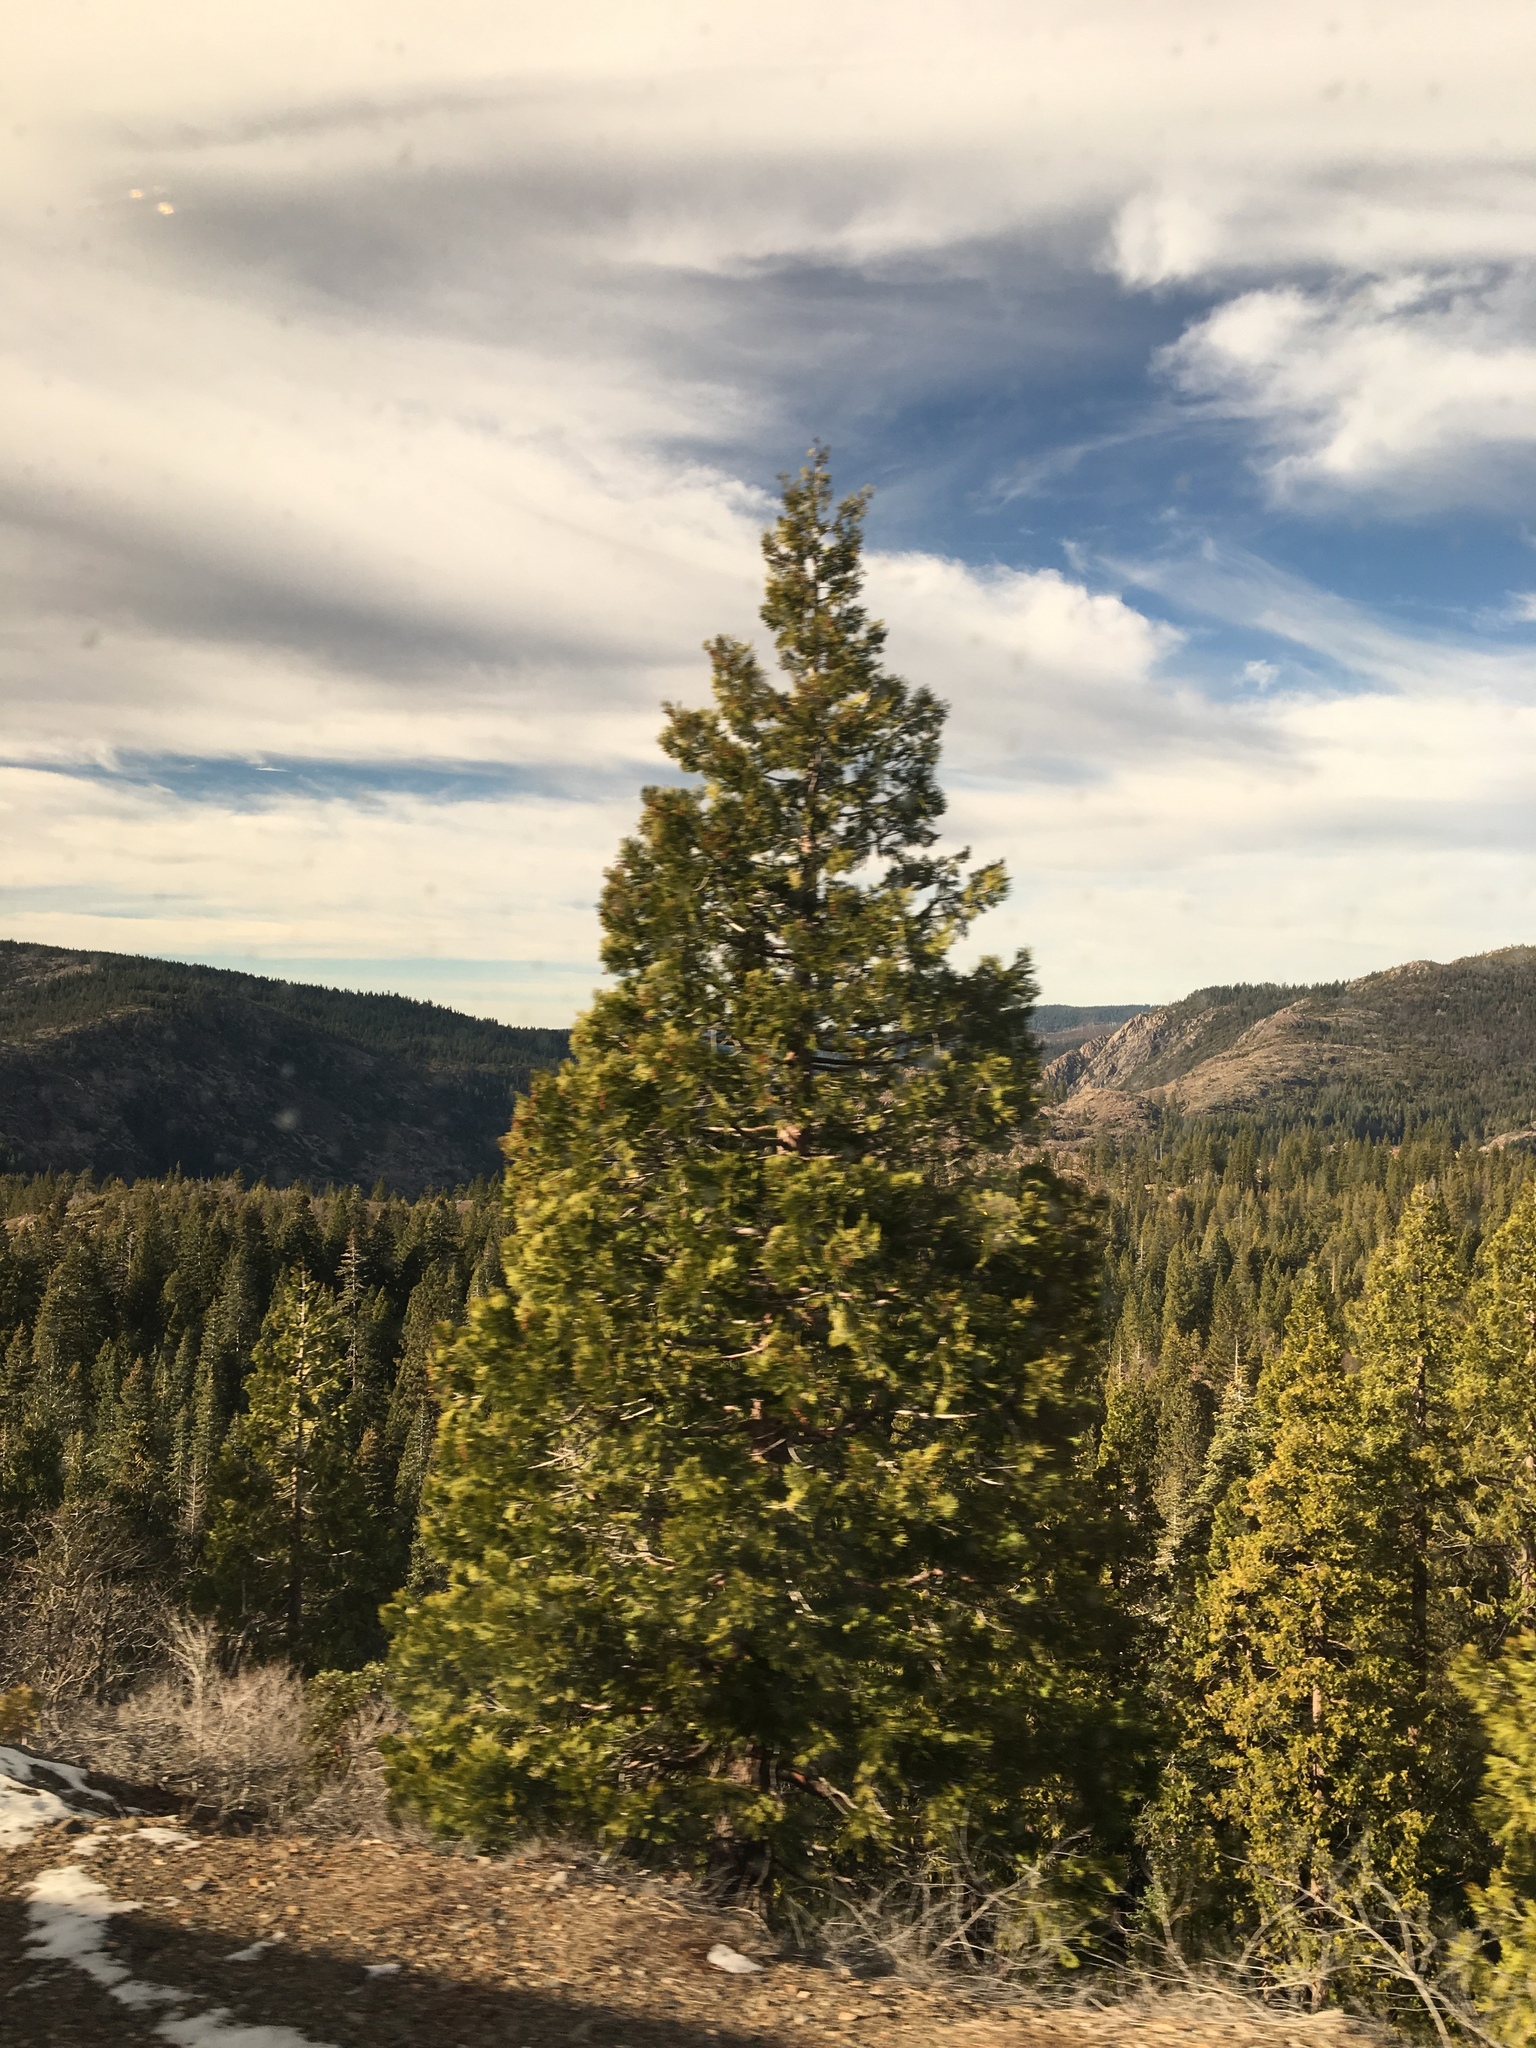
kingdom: Plantae
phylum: Tracheophyta
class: Pinopsida
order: Pinales
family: Cupressaceae
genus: Calocedrus
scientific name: Calocedrus decurrens
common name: Californian incense-cedar
